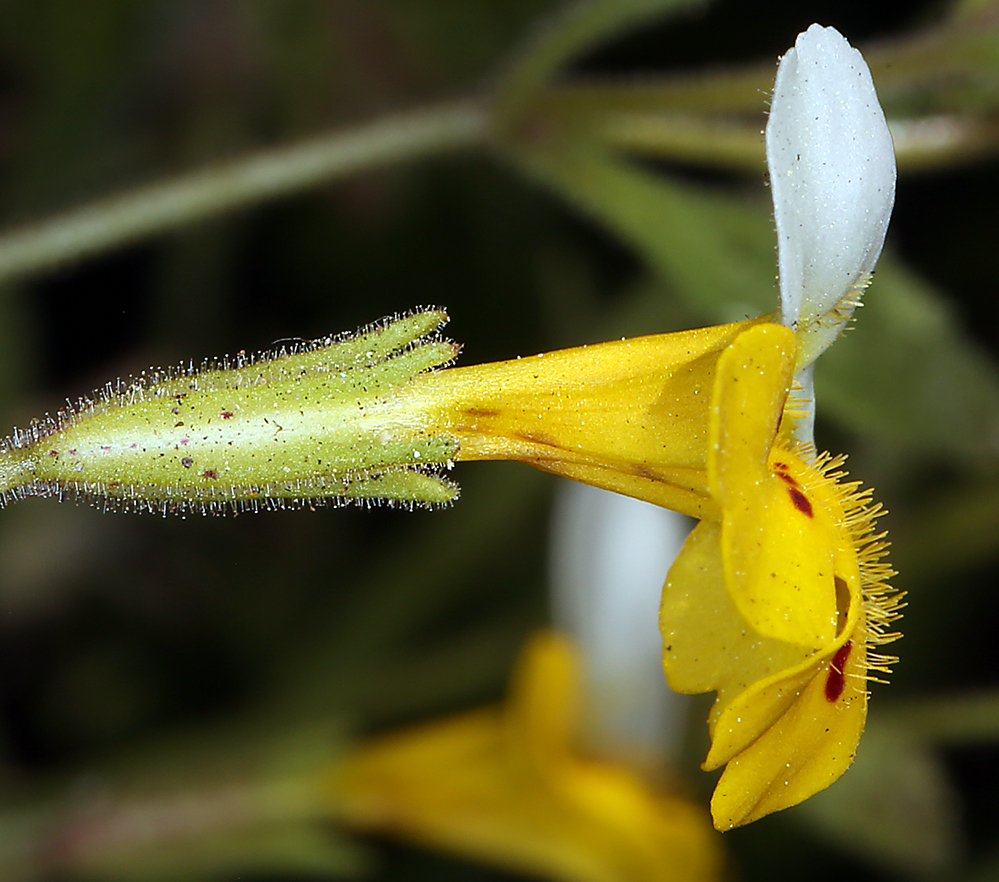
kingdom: Plantae
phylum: Tracheophyta
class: Magnoliopsida
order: Lamiales
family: Phrymaceae
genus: Erythranthe
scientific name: Erythranthe bicolor
